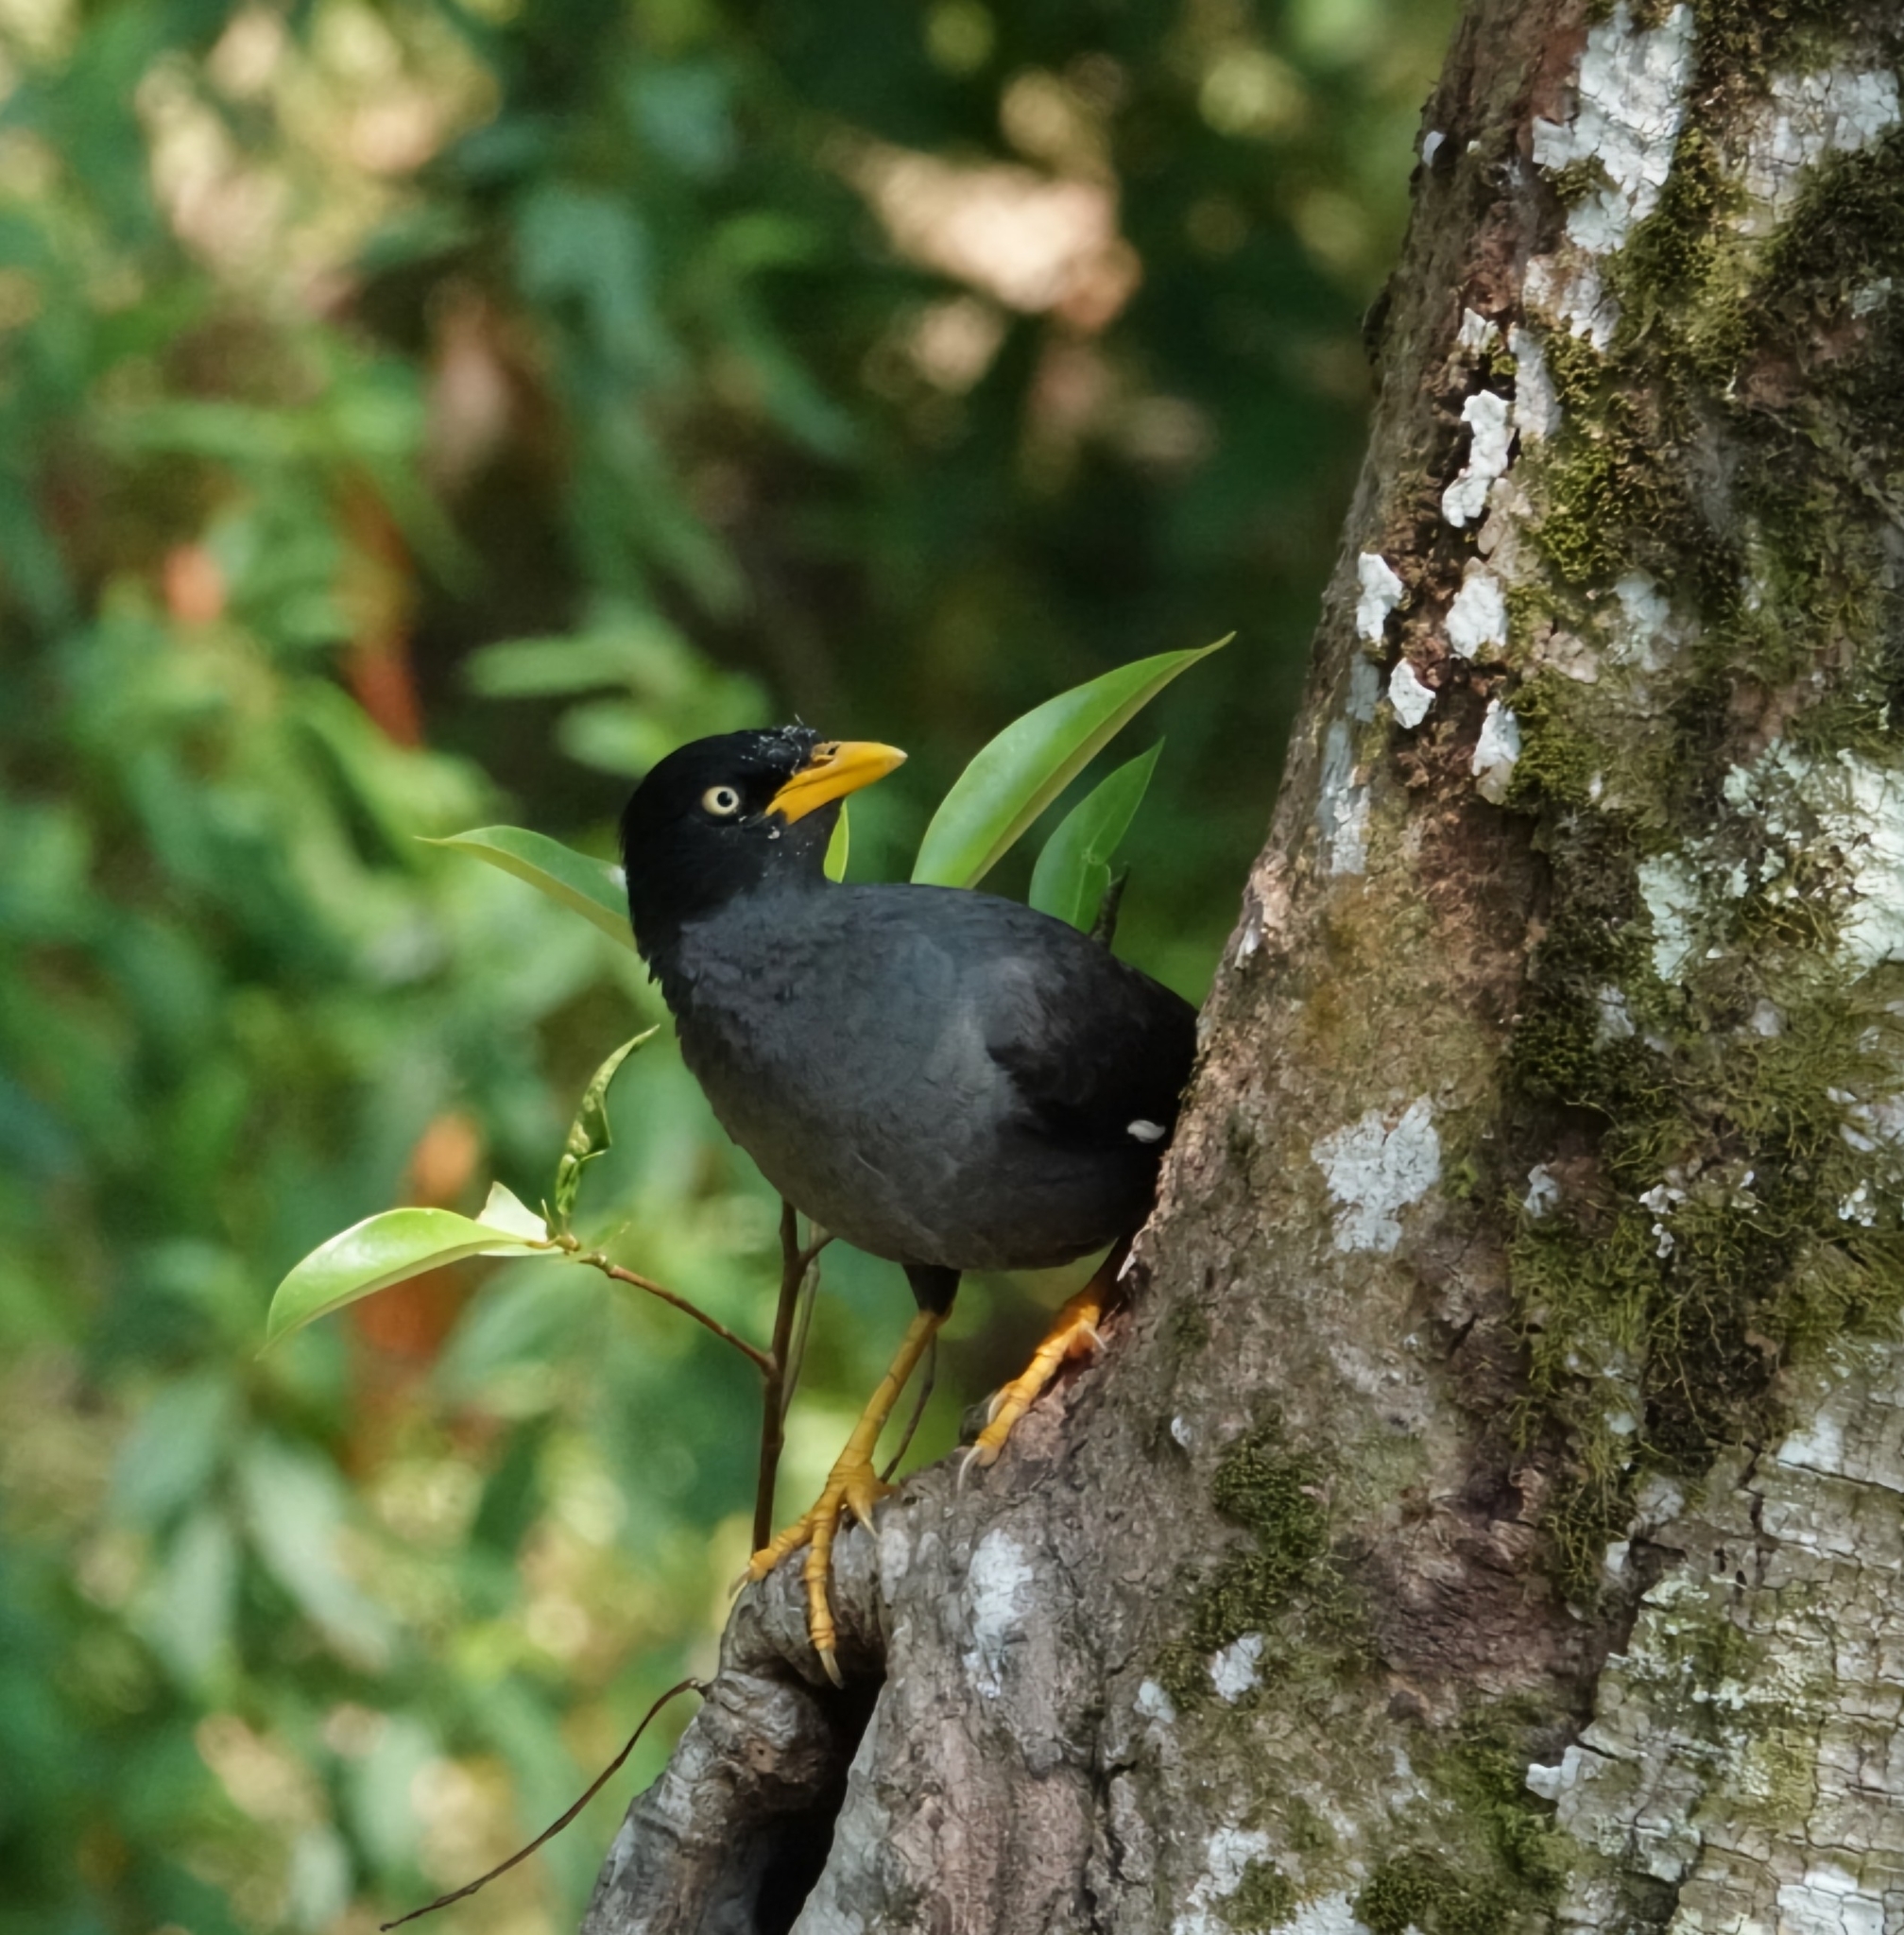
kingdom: Animalia
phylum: Chordata
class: Aves
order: Passeriformes
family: Sturnidae
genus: Acridotheres
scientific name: Acridotheres javanicus
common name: Javan myna
